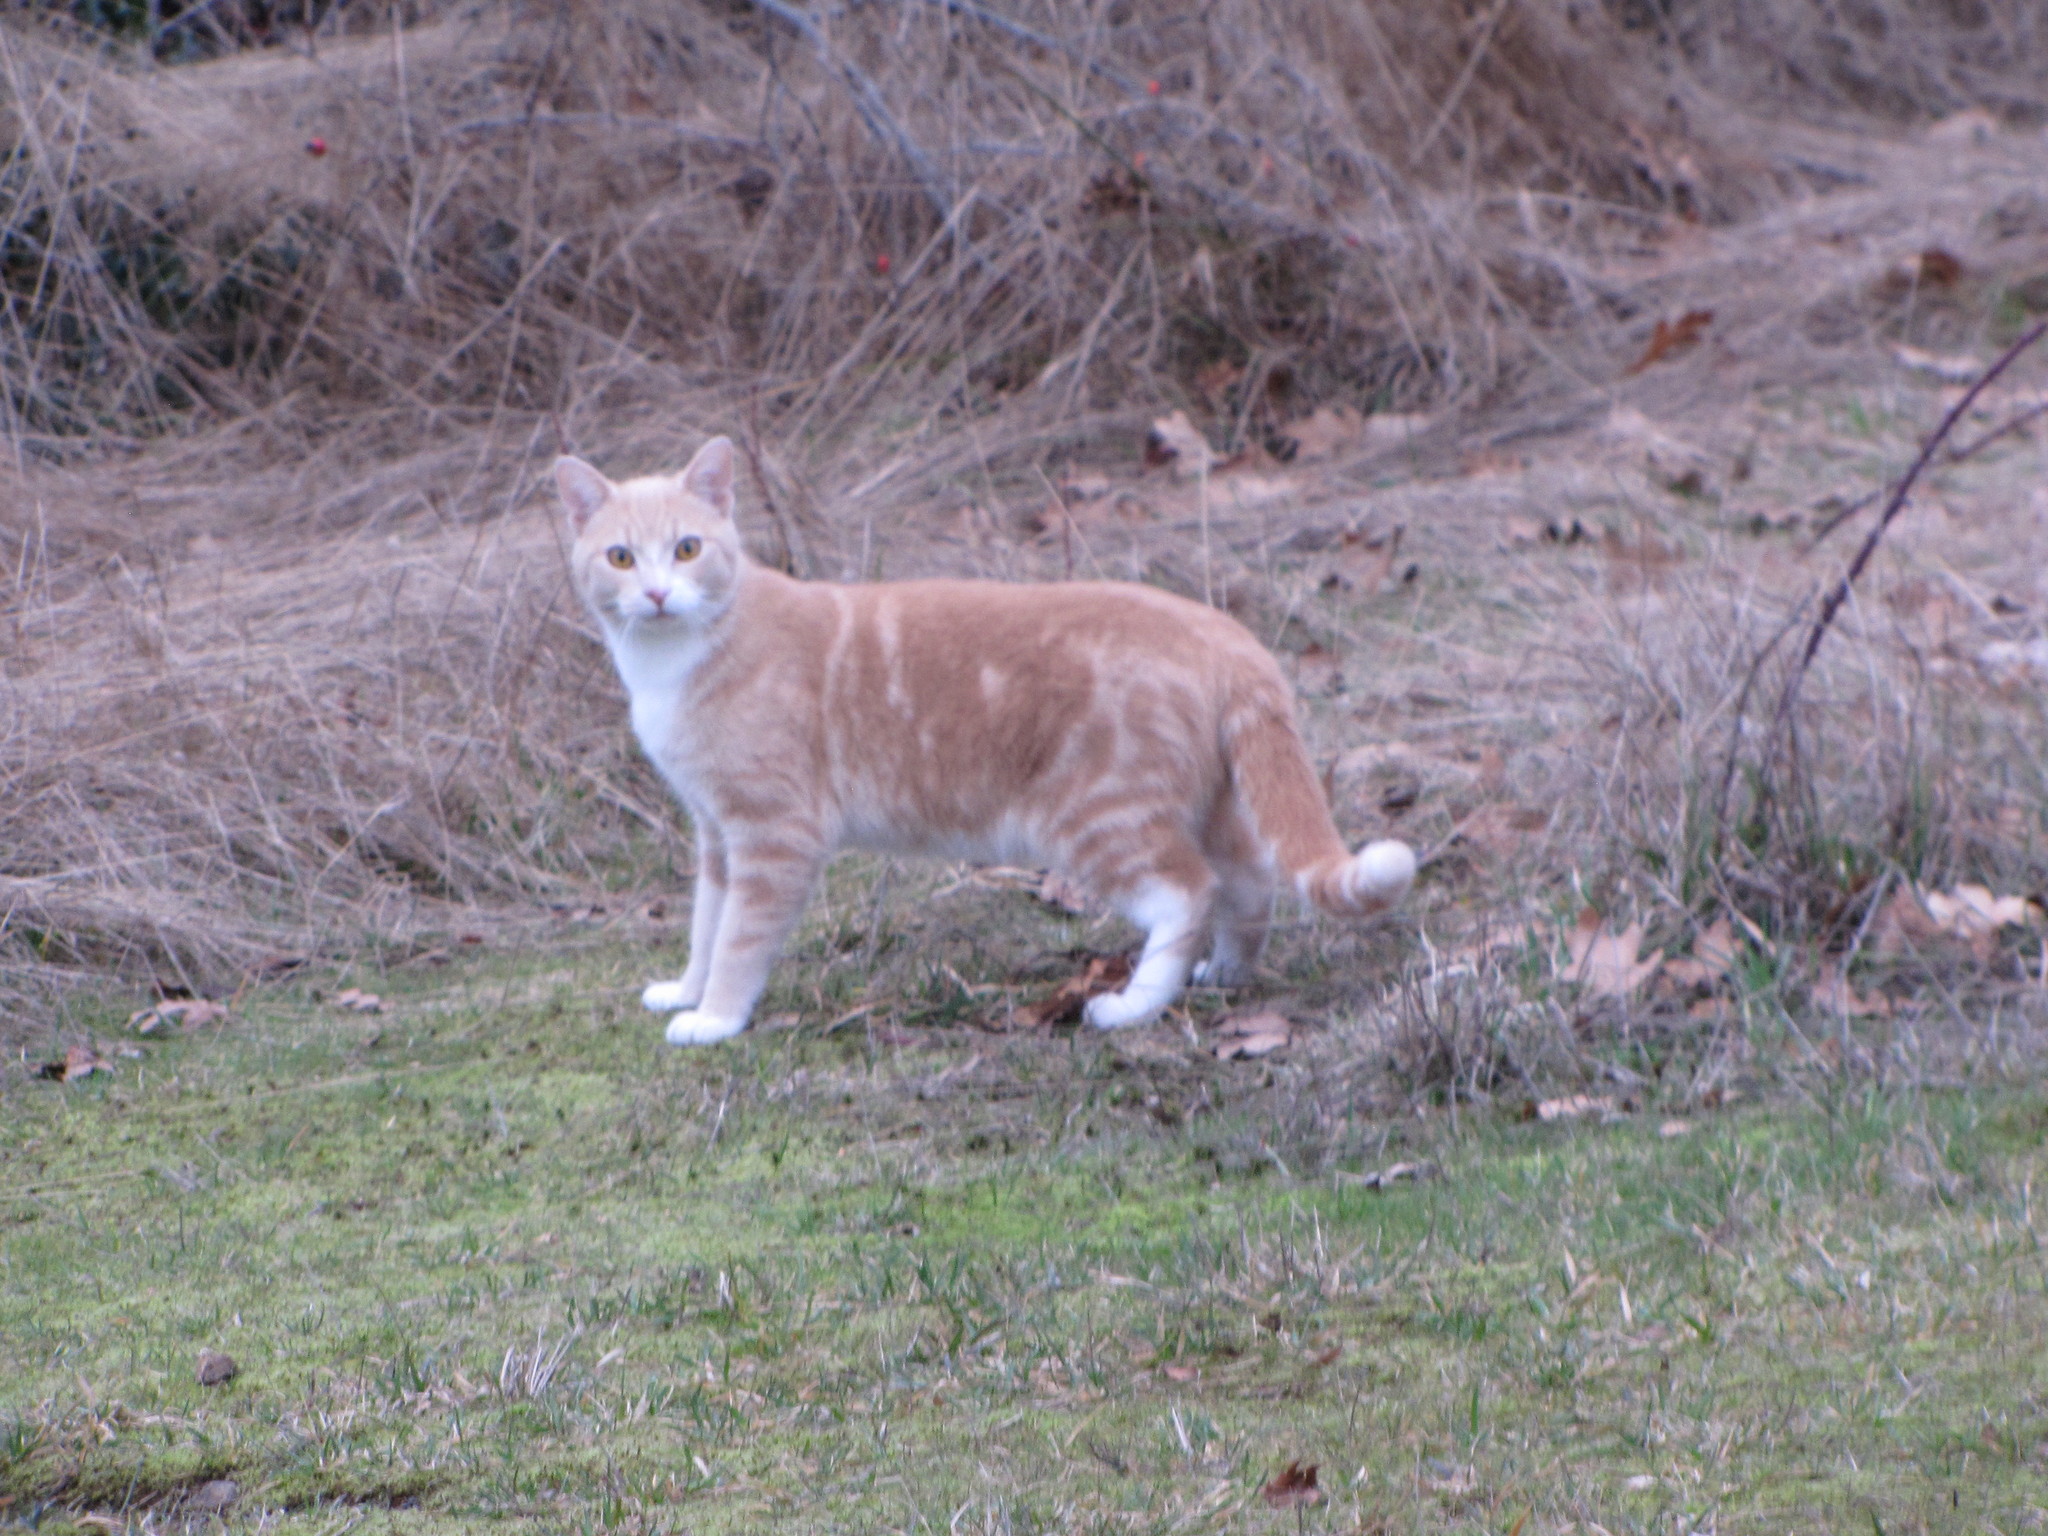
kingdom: Animalia
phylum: Chordata
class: Mammalia
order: Carnivora
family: Felidae
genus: Felis
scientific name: Felis catus
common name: Domestic cat
